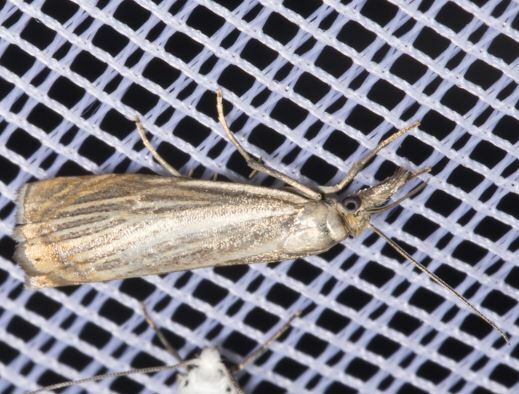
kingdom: Animalia
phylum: Arthropoda
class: Insecta
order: Lepidoptera
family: Crambidae
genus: Chrysoteuchia
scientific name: Chrysoteuchia culmella
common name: Garden grass-veneer
